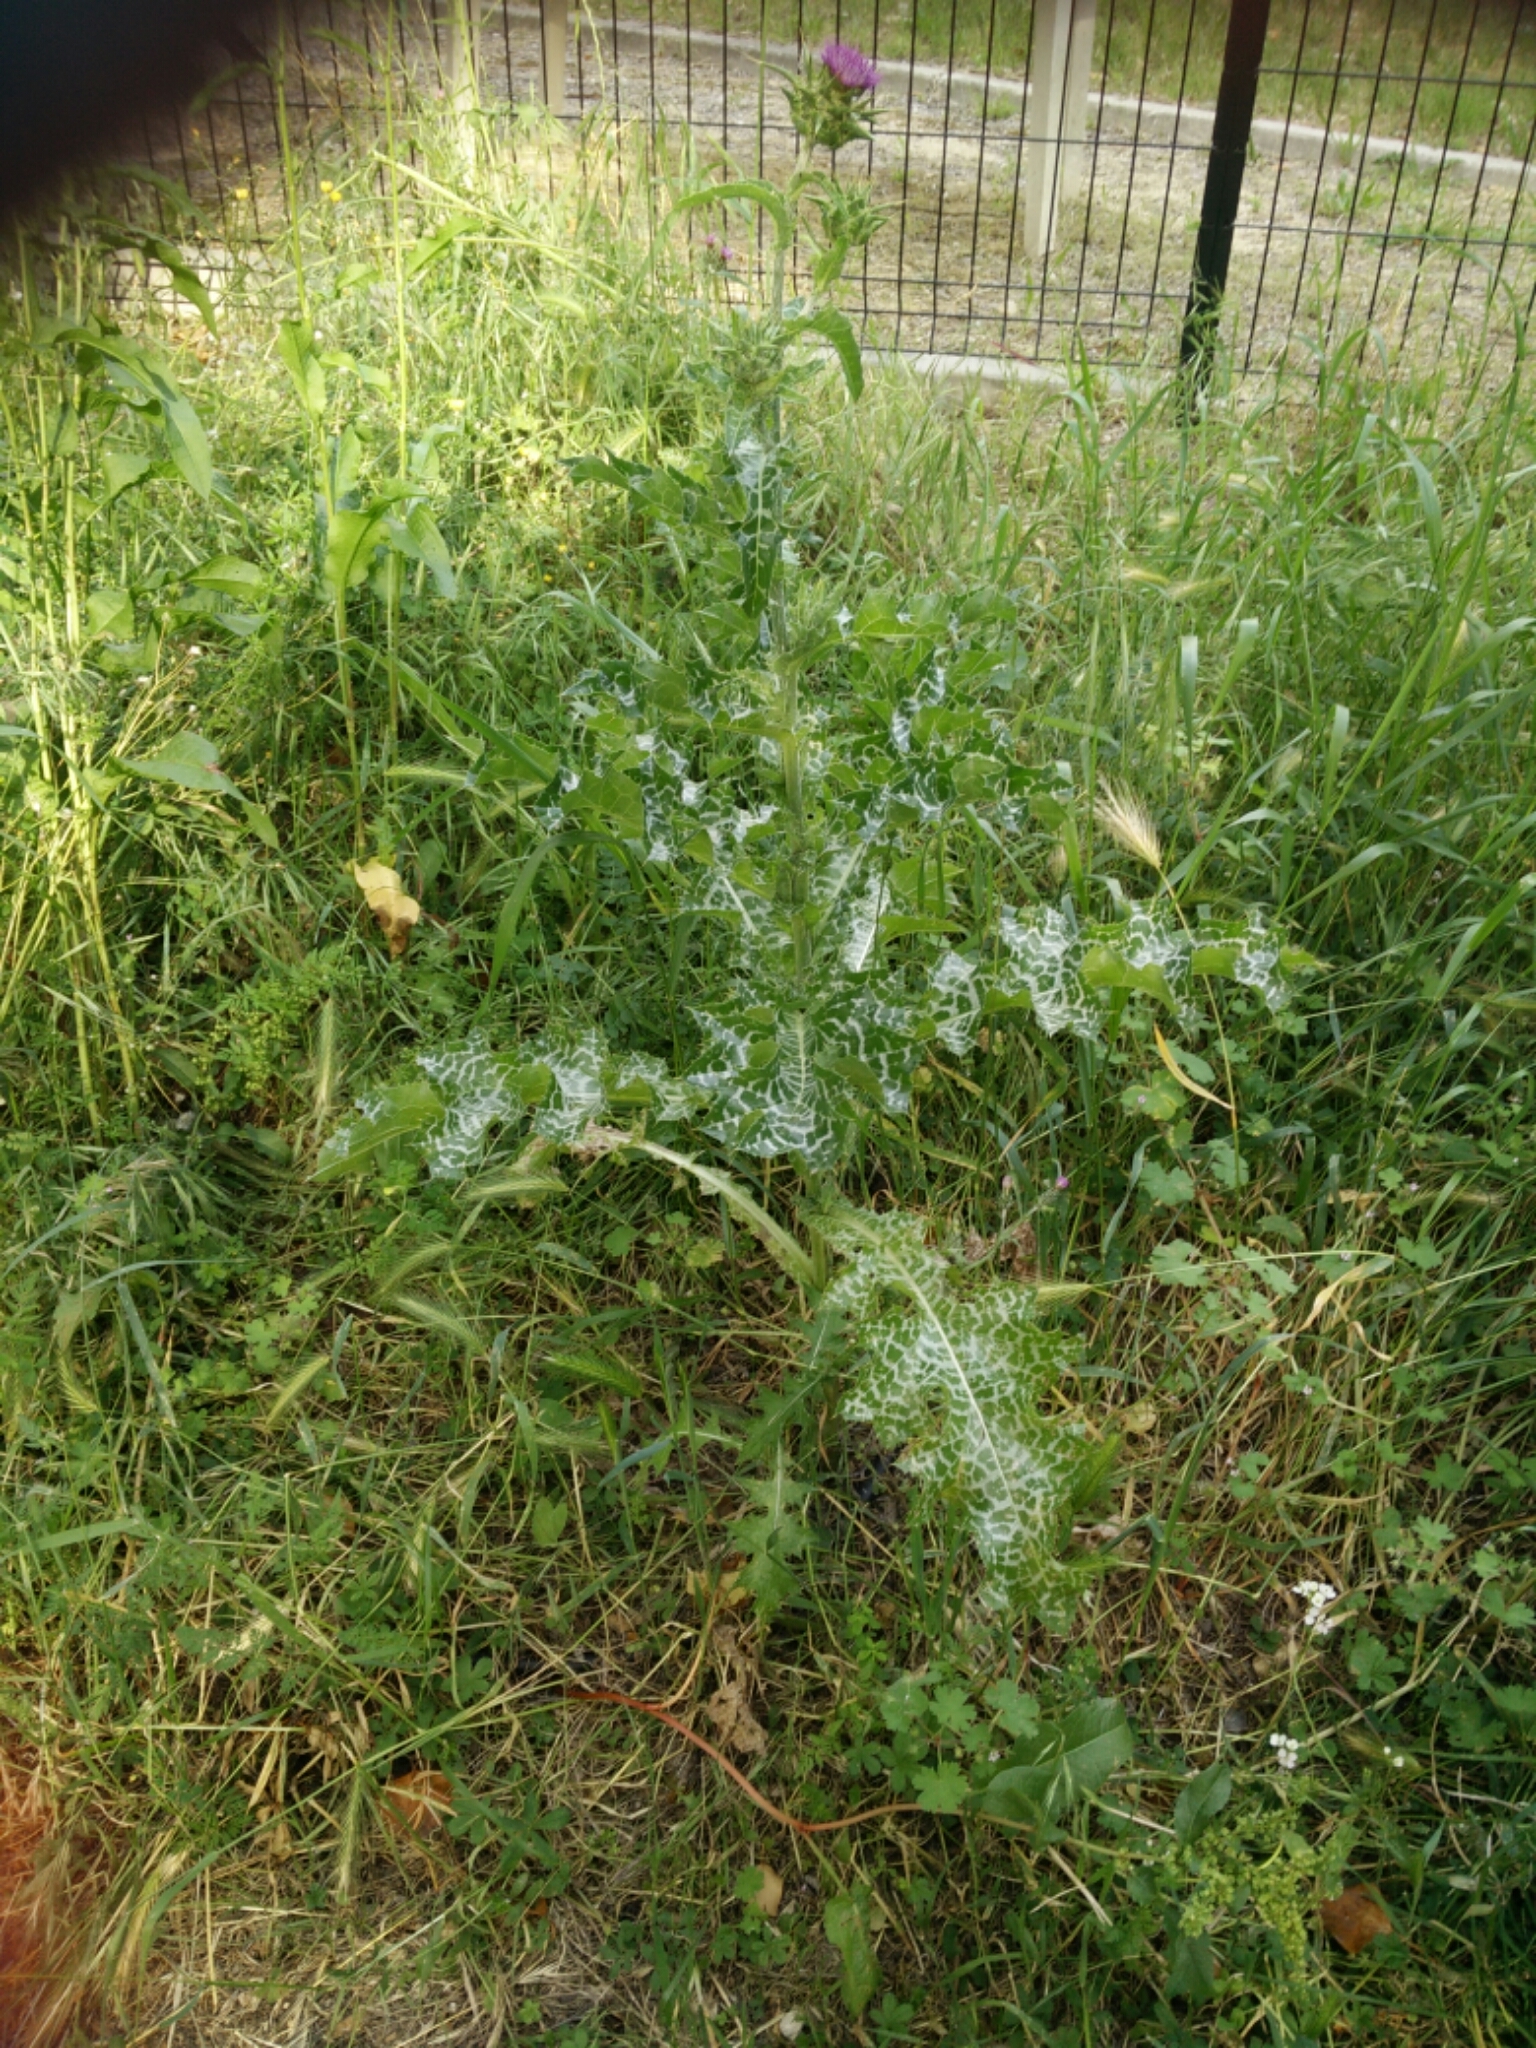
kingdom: Plantae
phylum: Tracheophyta
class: Magnoliopsida
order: Asterales
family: Asteraceae
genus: Silybum
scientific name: Silybum marianum
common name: Milk thistle
